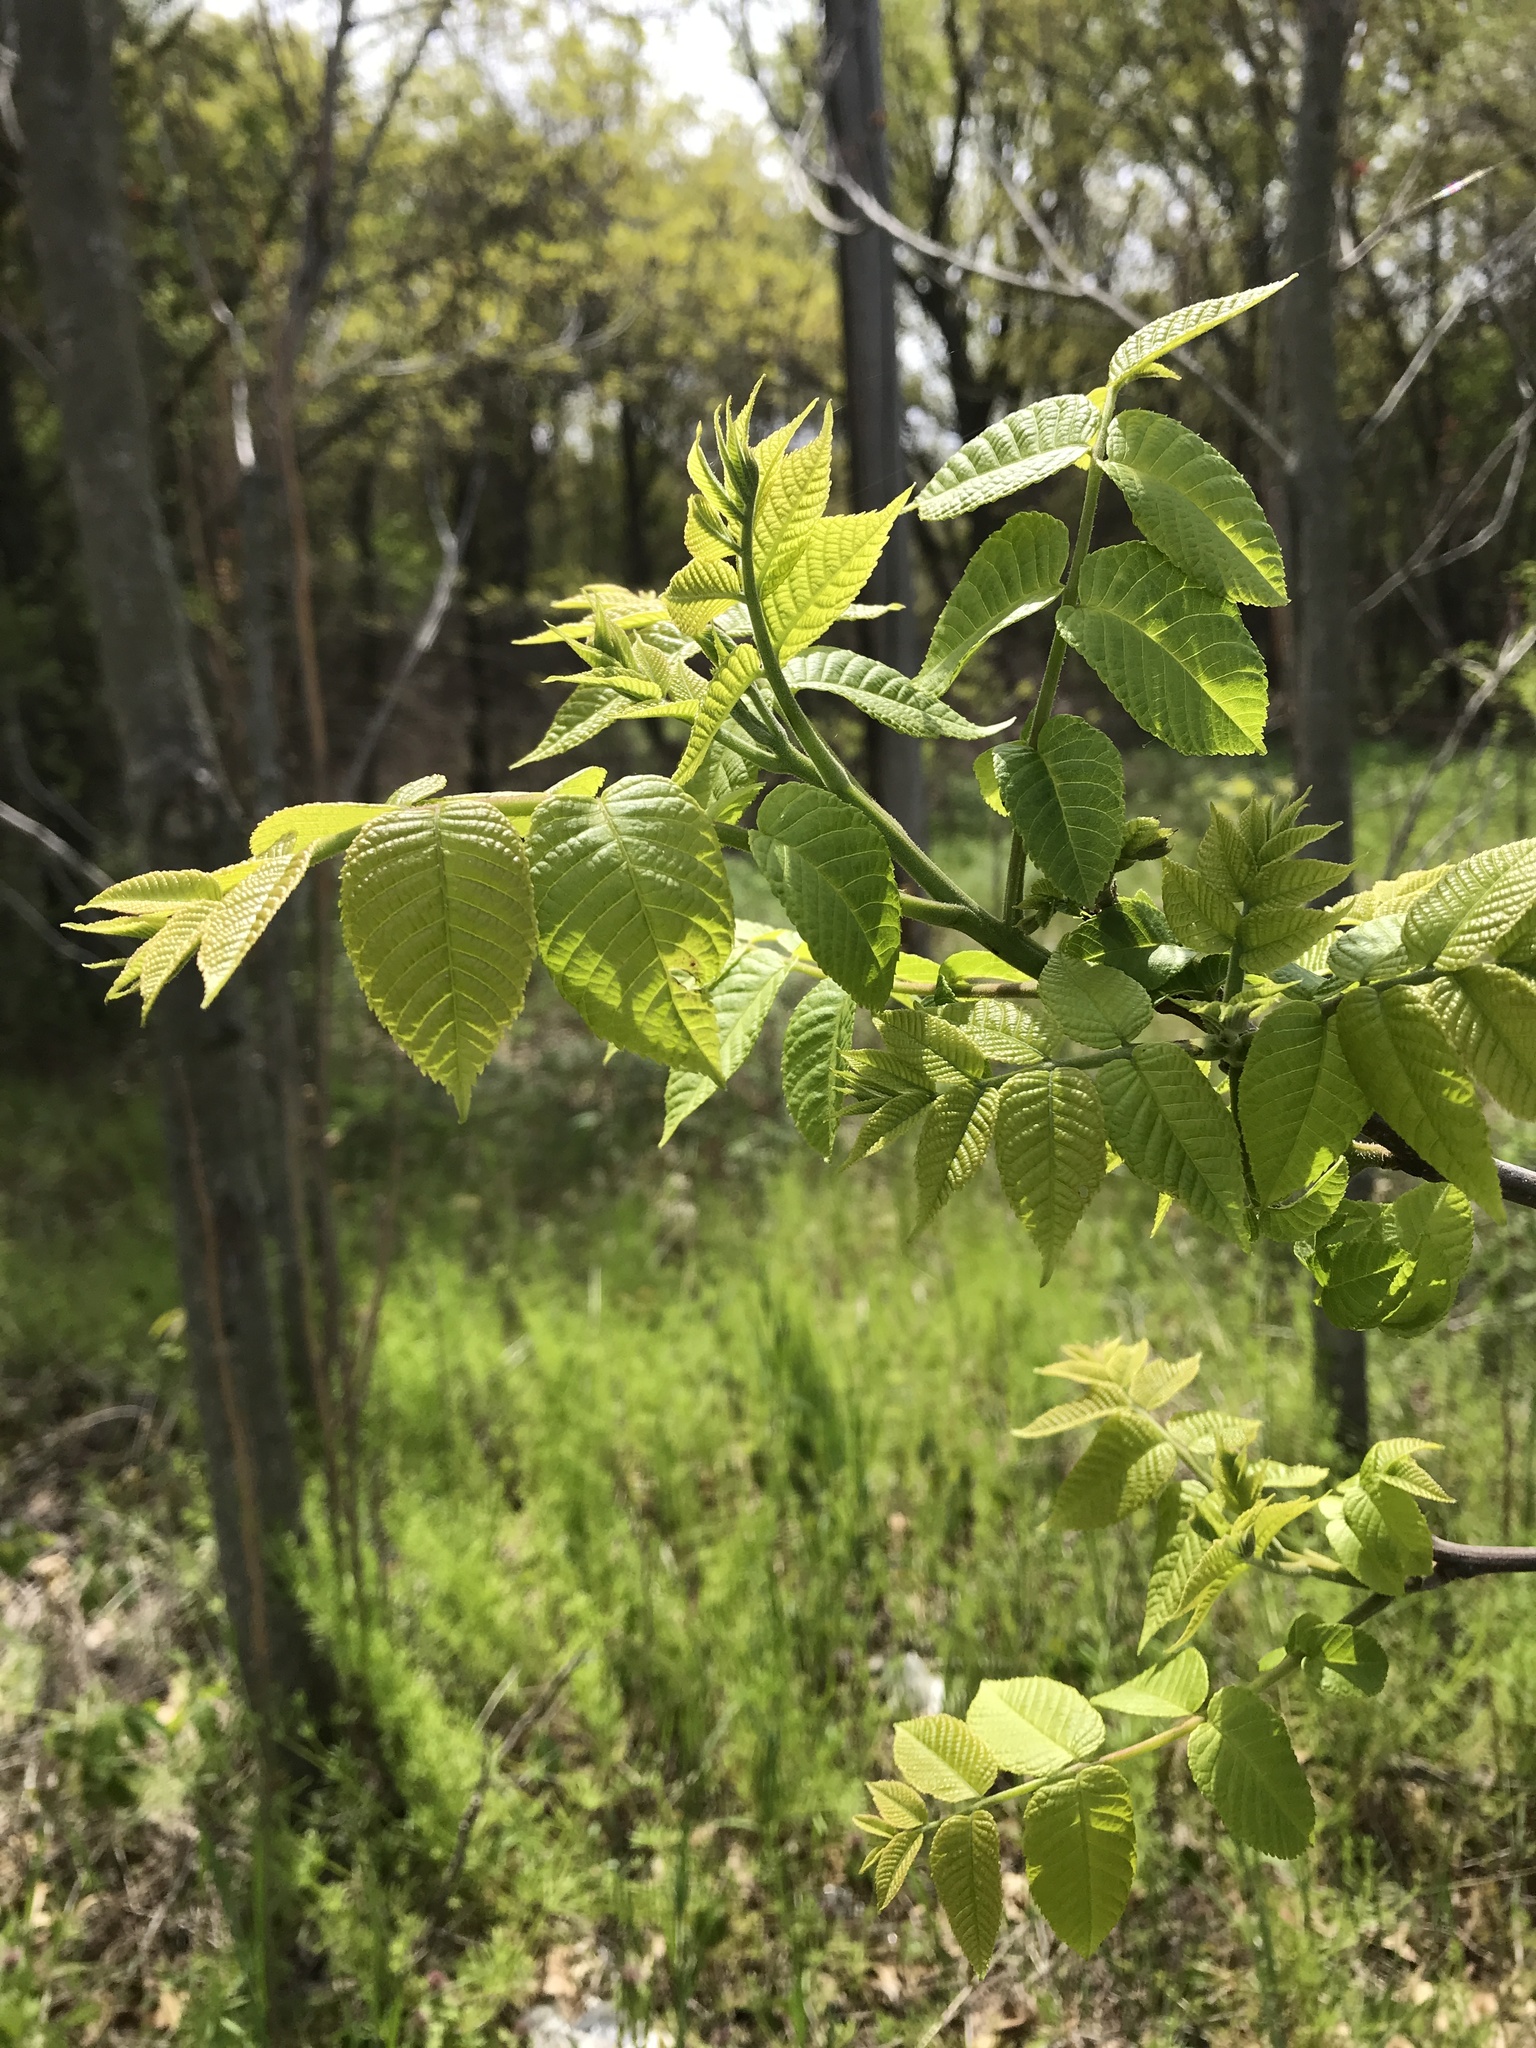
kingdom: Plantae
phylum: Tracheophyta
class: Magnoliopsida
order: Fagales
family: Juglandaceae
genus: Juglans
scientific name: Juglans nigra
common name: Black walnut
